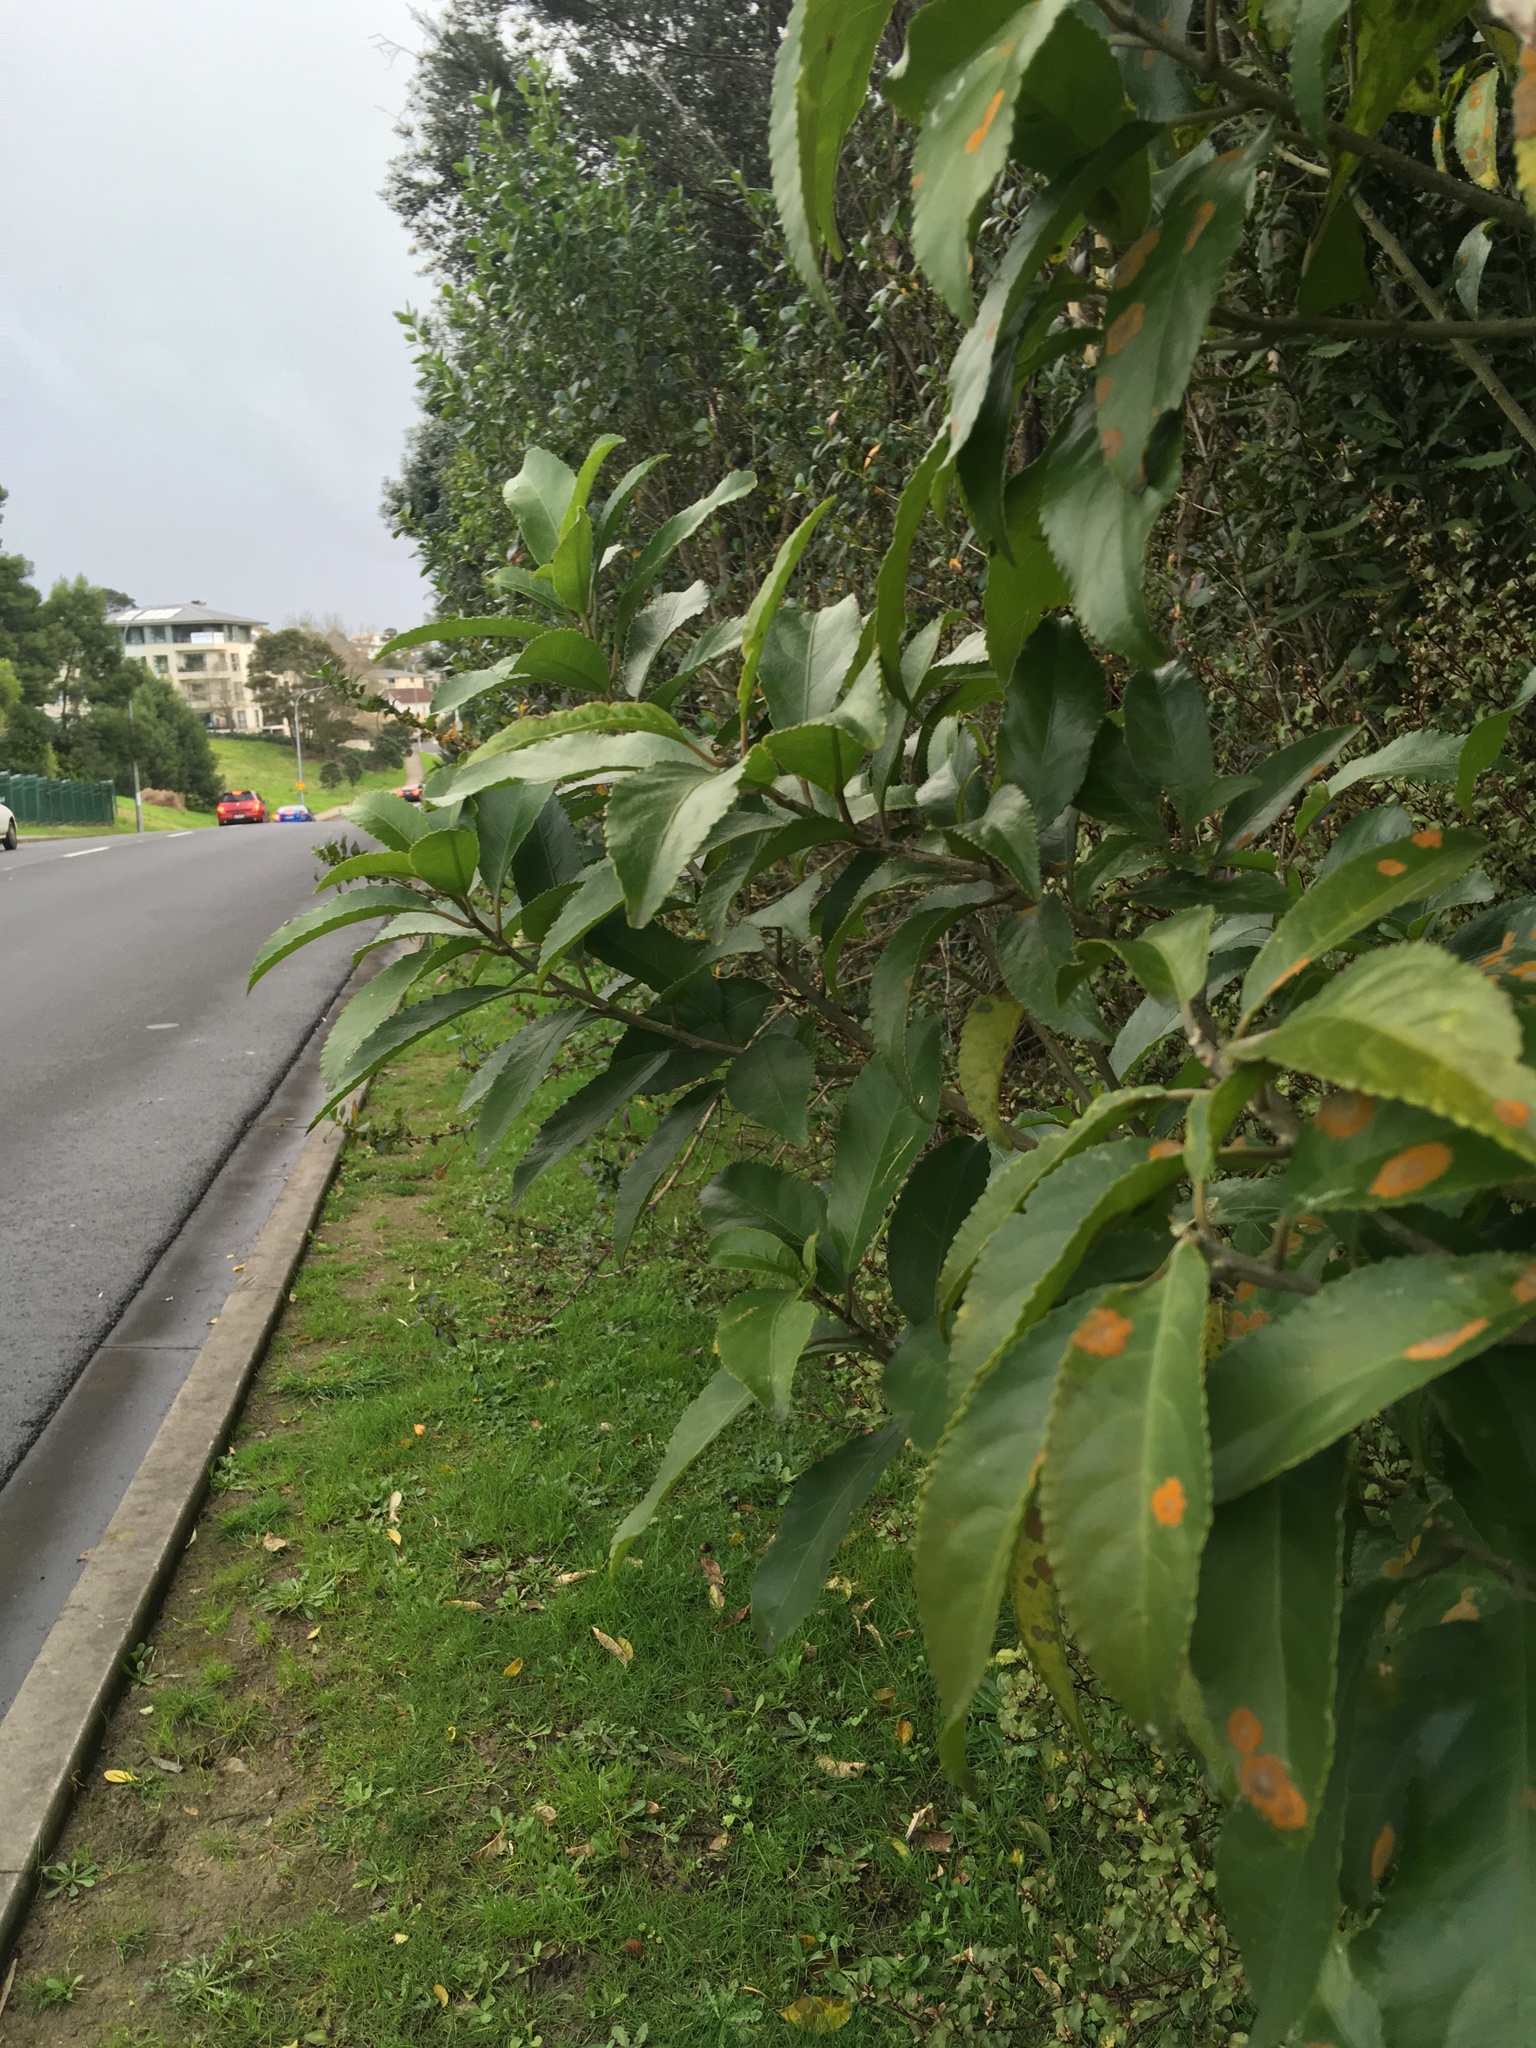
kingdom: Plantae
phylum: Tracheophyta
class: Magnoliopsida
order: Malpighiales
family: Violaceae
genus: Melicytus
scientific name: Melicytus ramiflorus
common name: Mahoe
